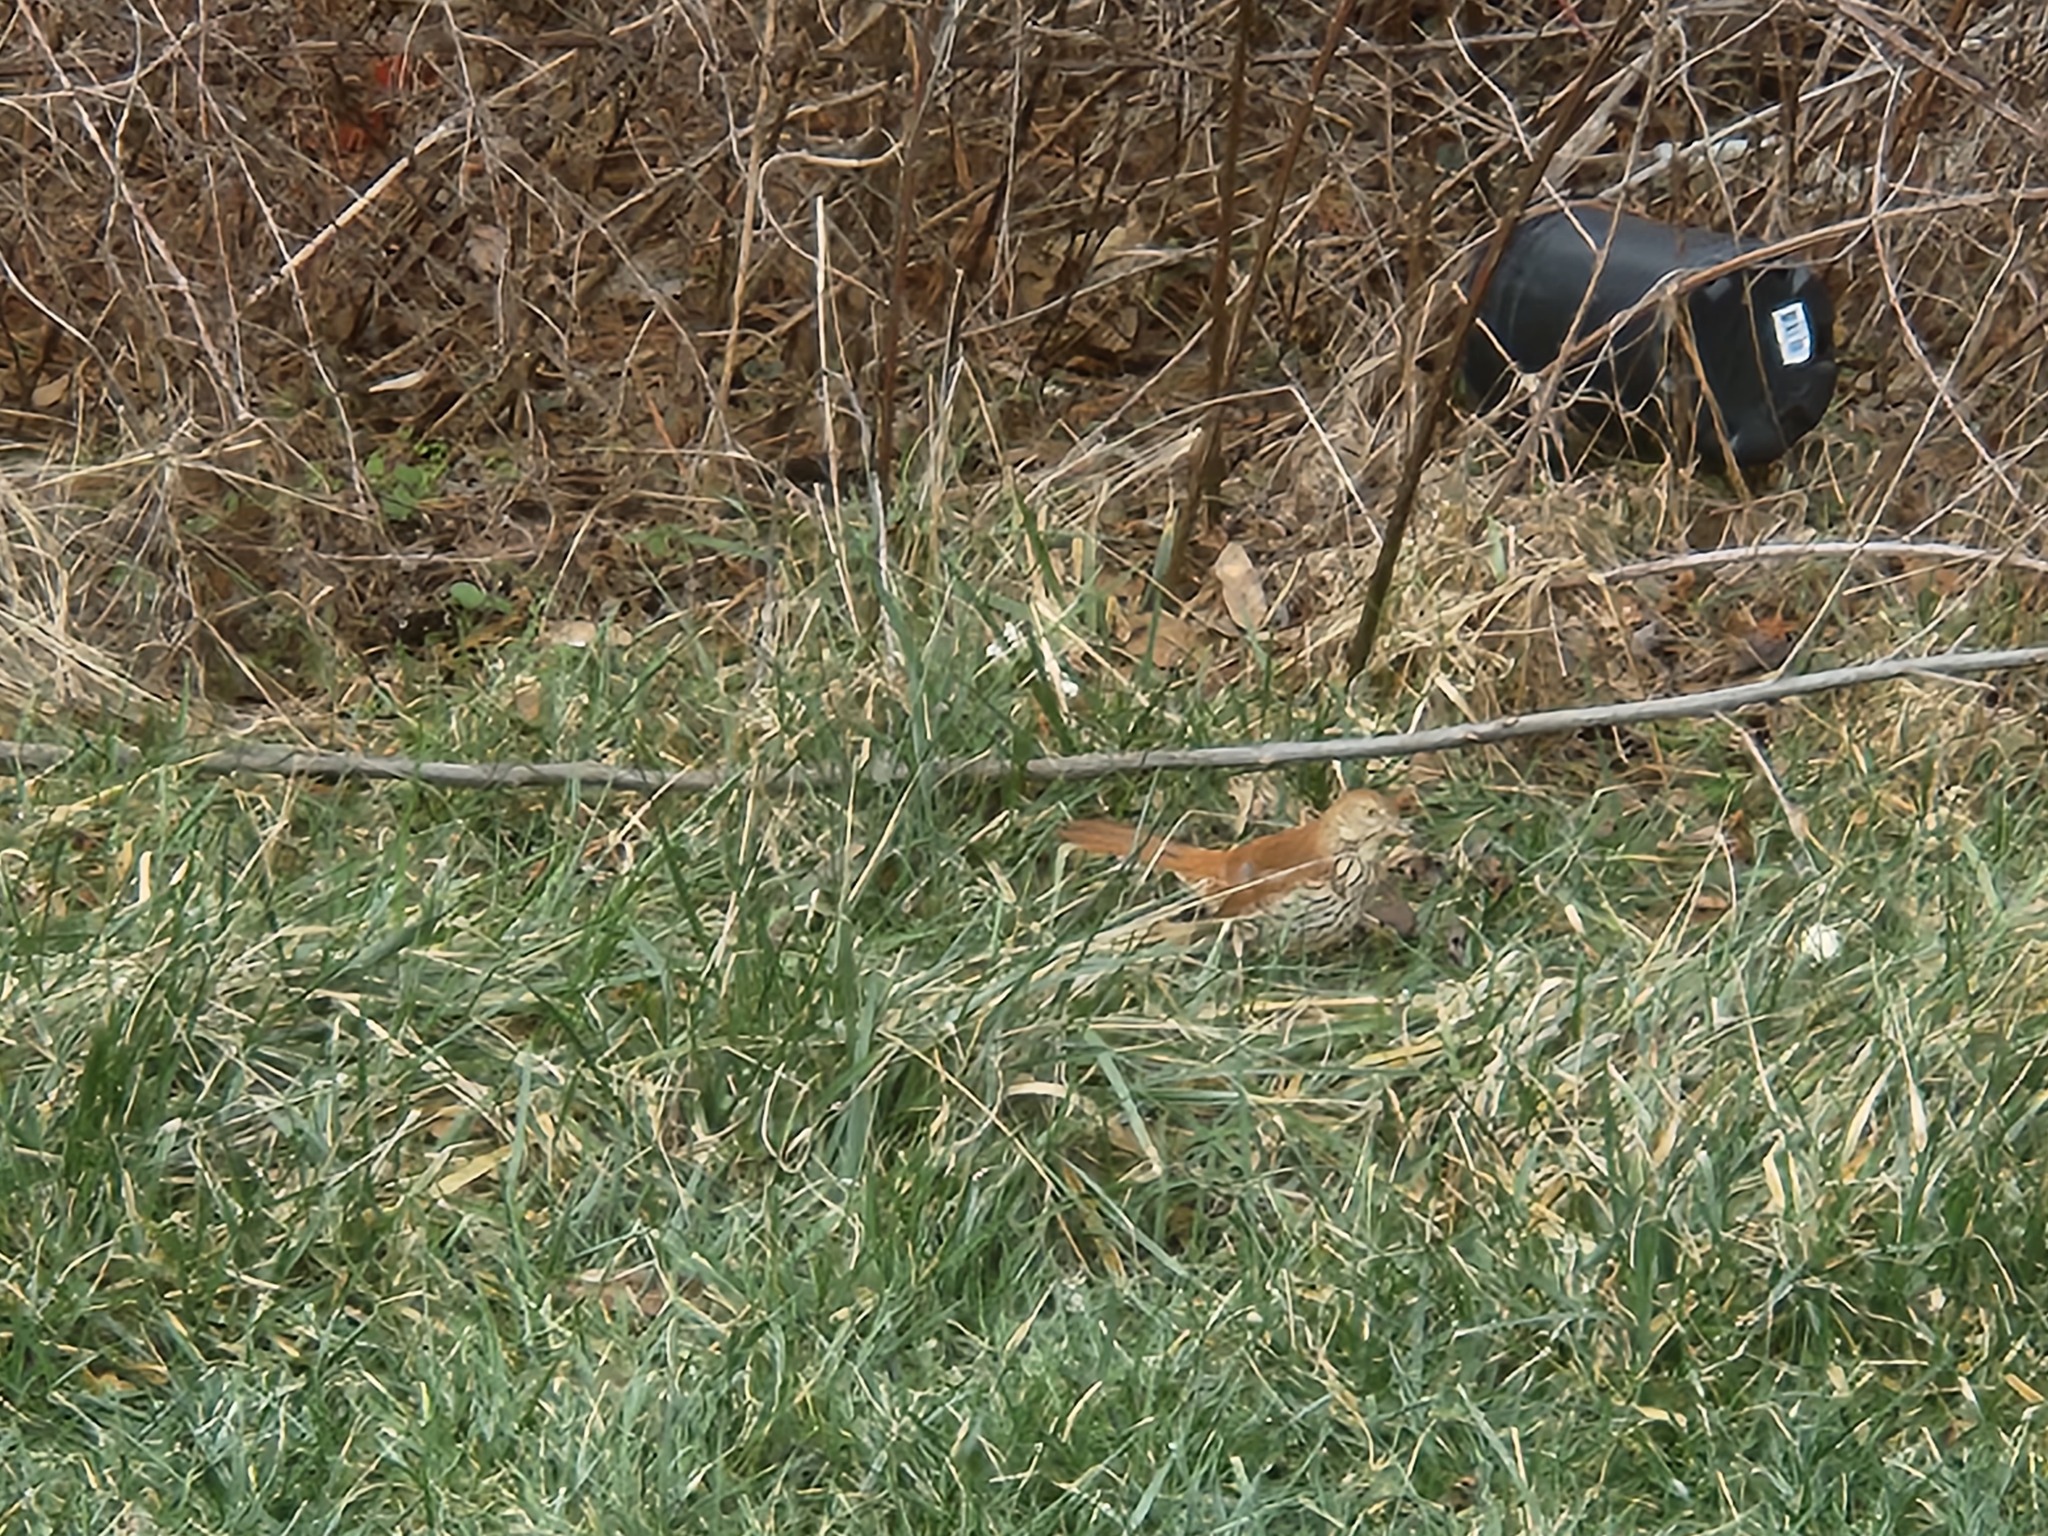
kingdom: Animalia
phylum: Chordata
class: Aves
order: Passeriformes
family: Mimidae
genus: Toxostoma
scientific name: Toxostoma rufum
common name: Brown thrasher
